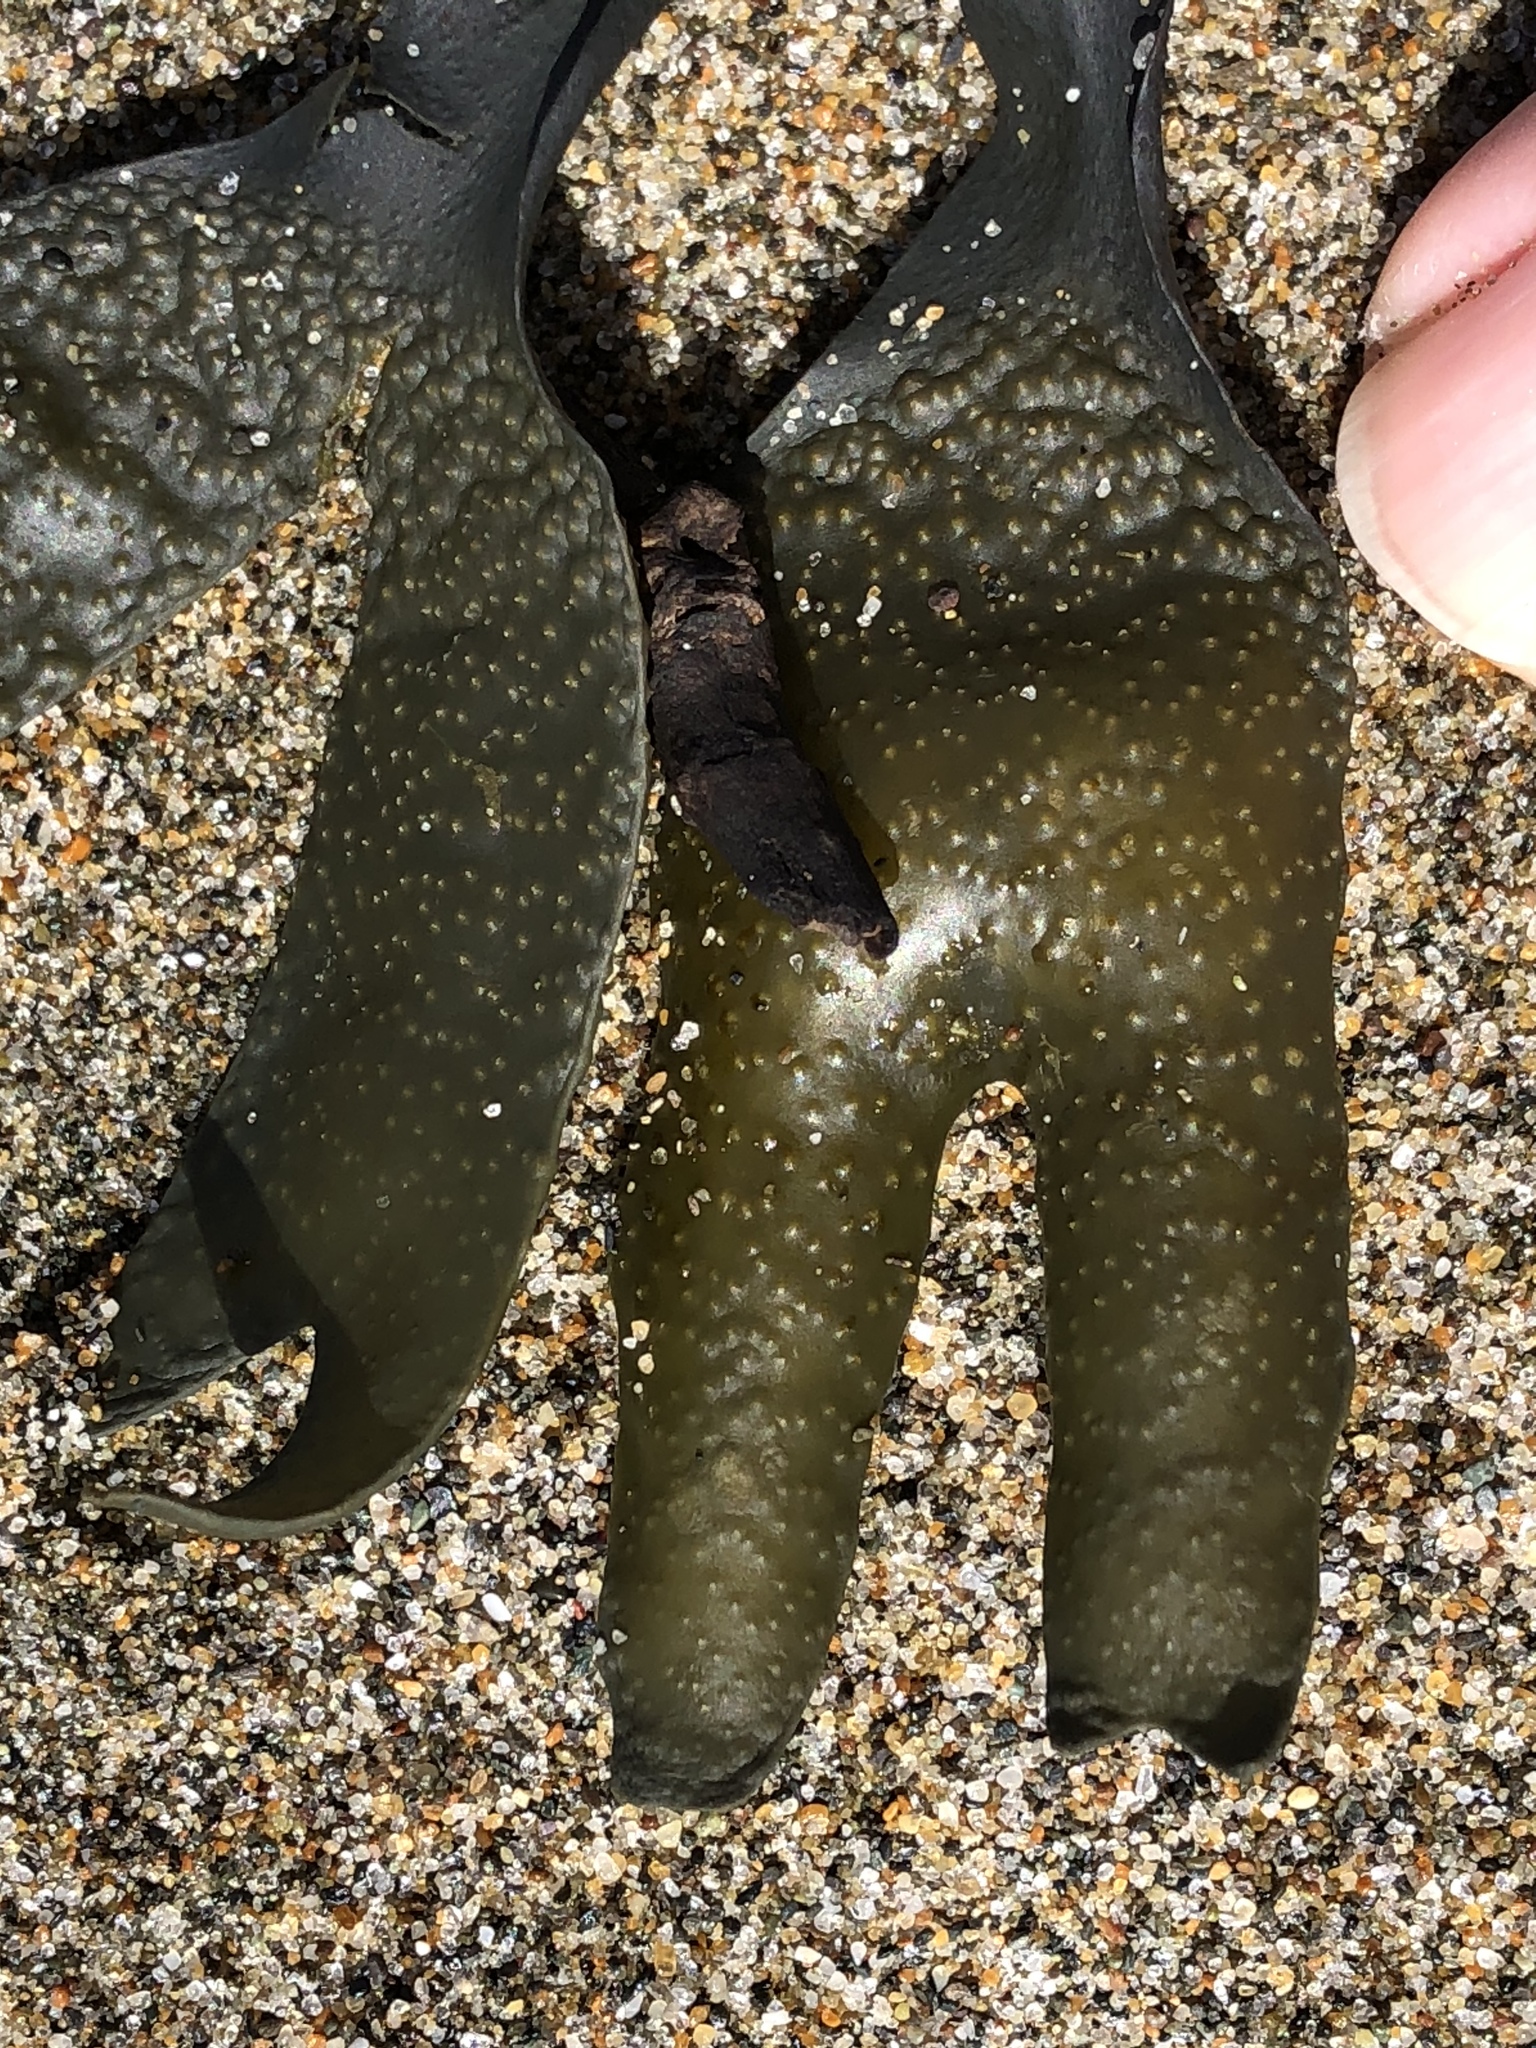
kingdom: Chromista
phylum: Ochrophyta
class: Phaeophyceae
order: Fucales
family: Fucaceae
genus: Fucus
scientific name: Fucus distichus
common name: Rockweed
